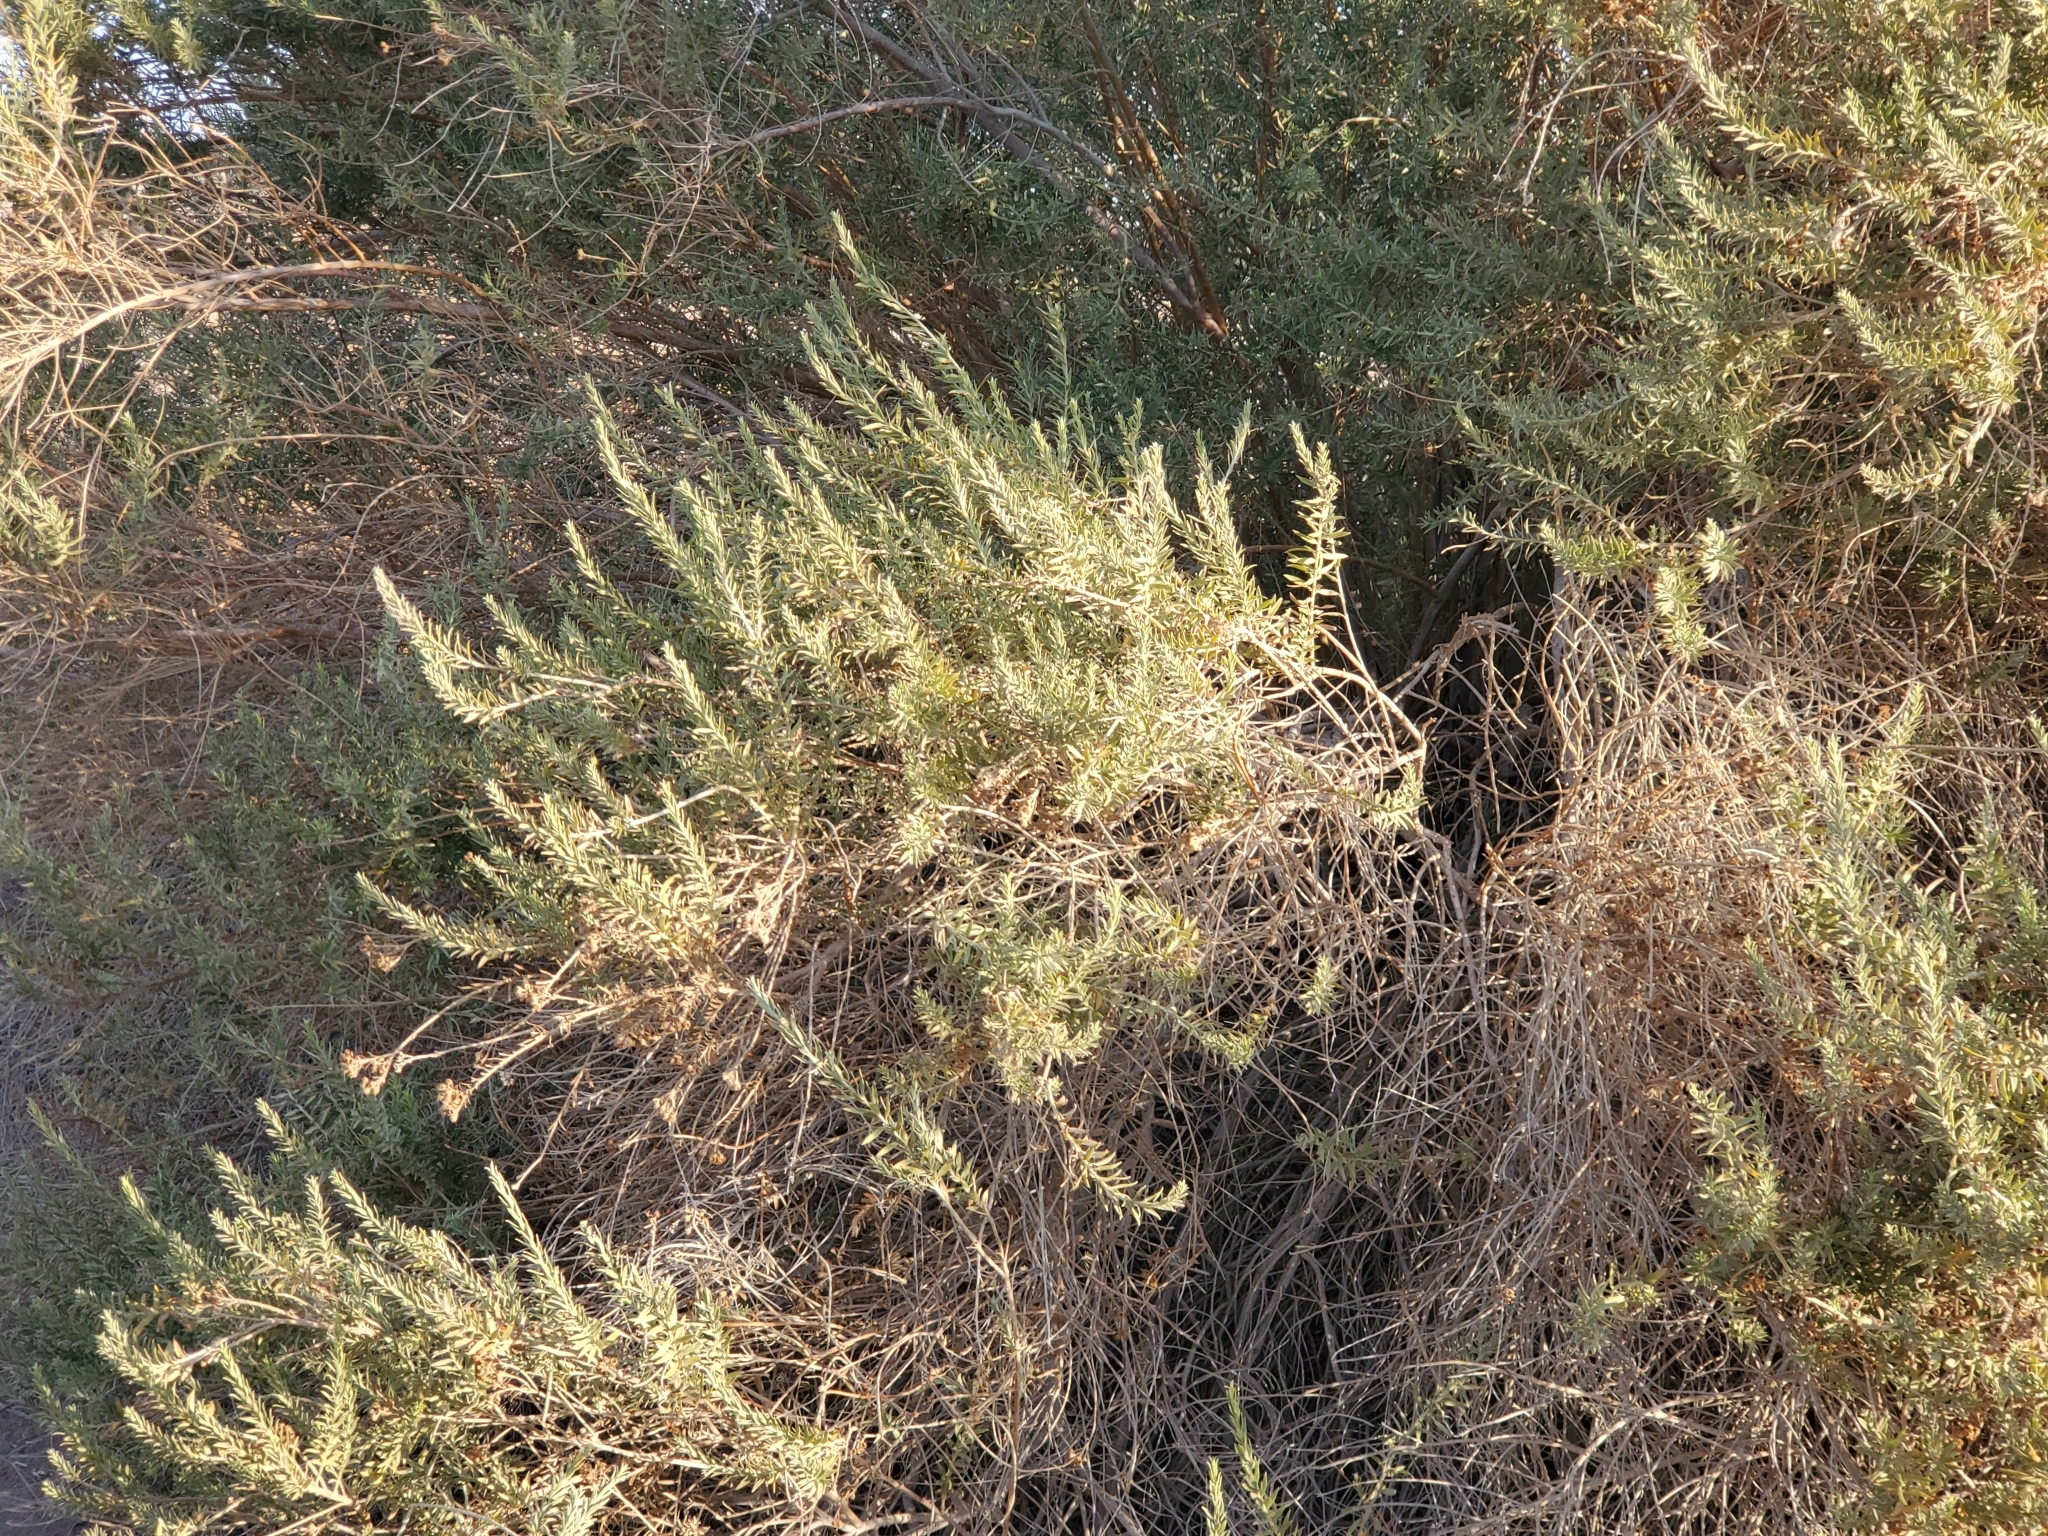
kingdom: Plantae
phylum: Tracheophyta
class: Magnoliopsida
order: Asterales
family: Asteraceae
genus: Pluchea
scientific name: Pluchea sericea
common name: Arrow-weed
